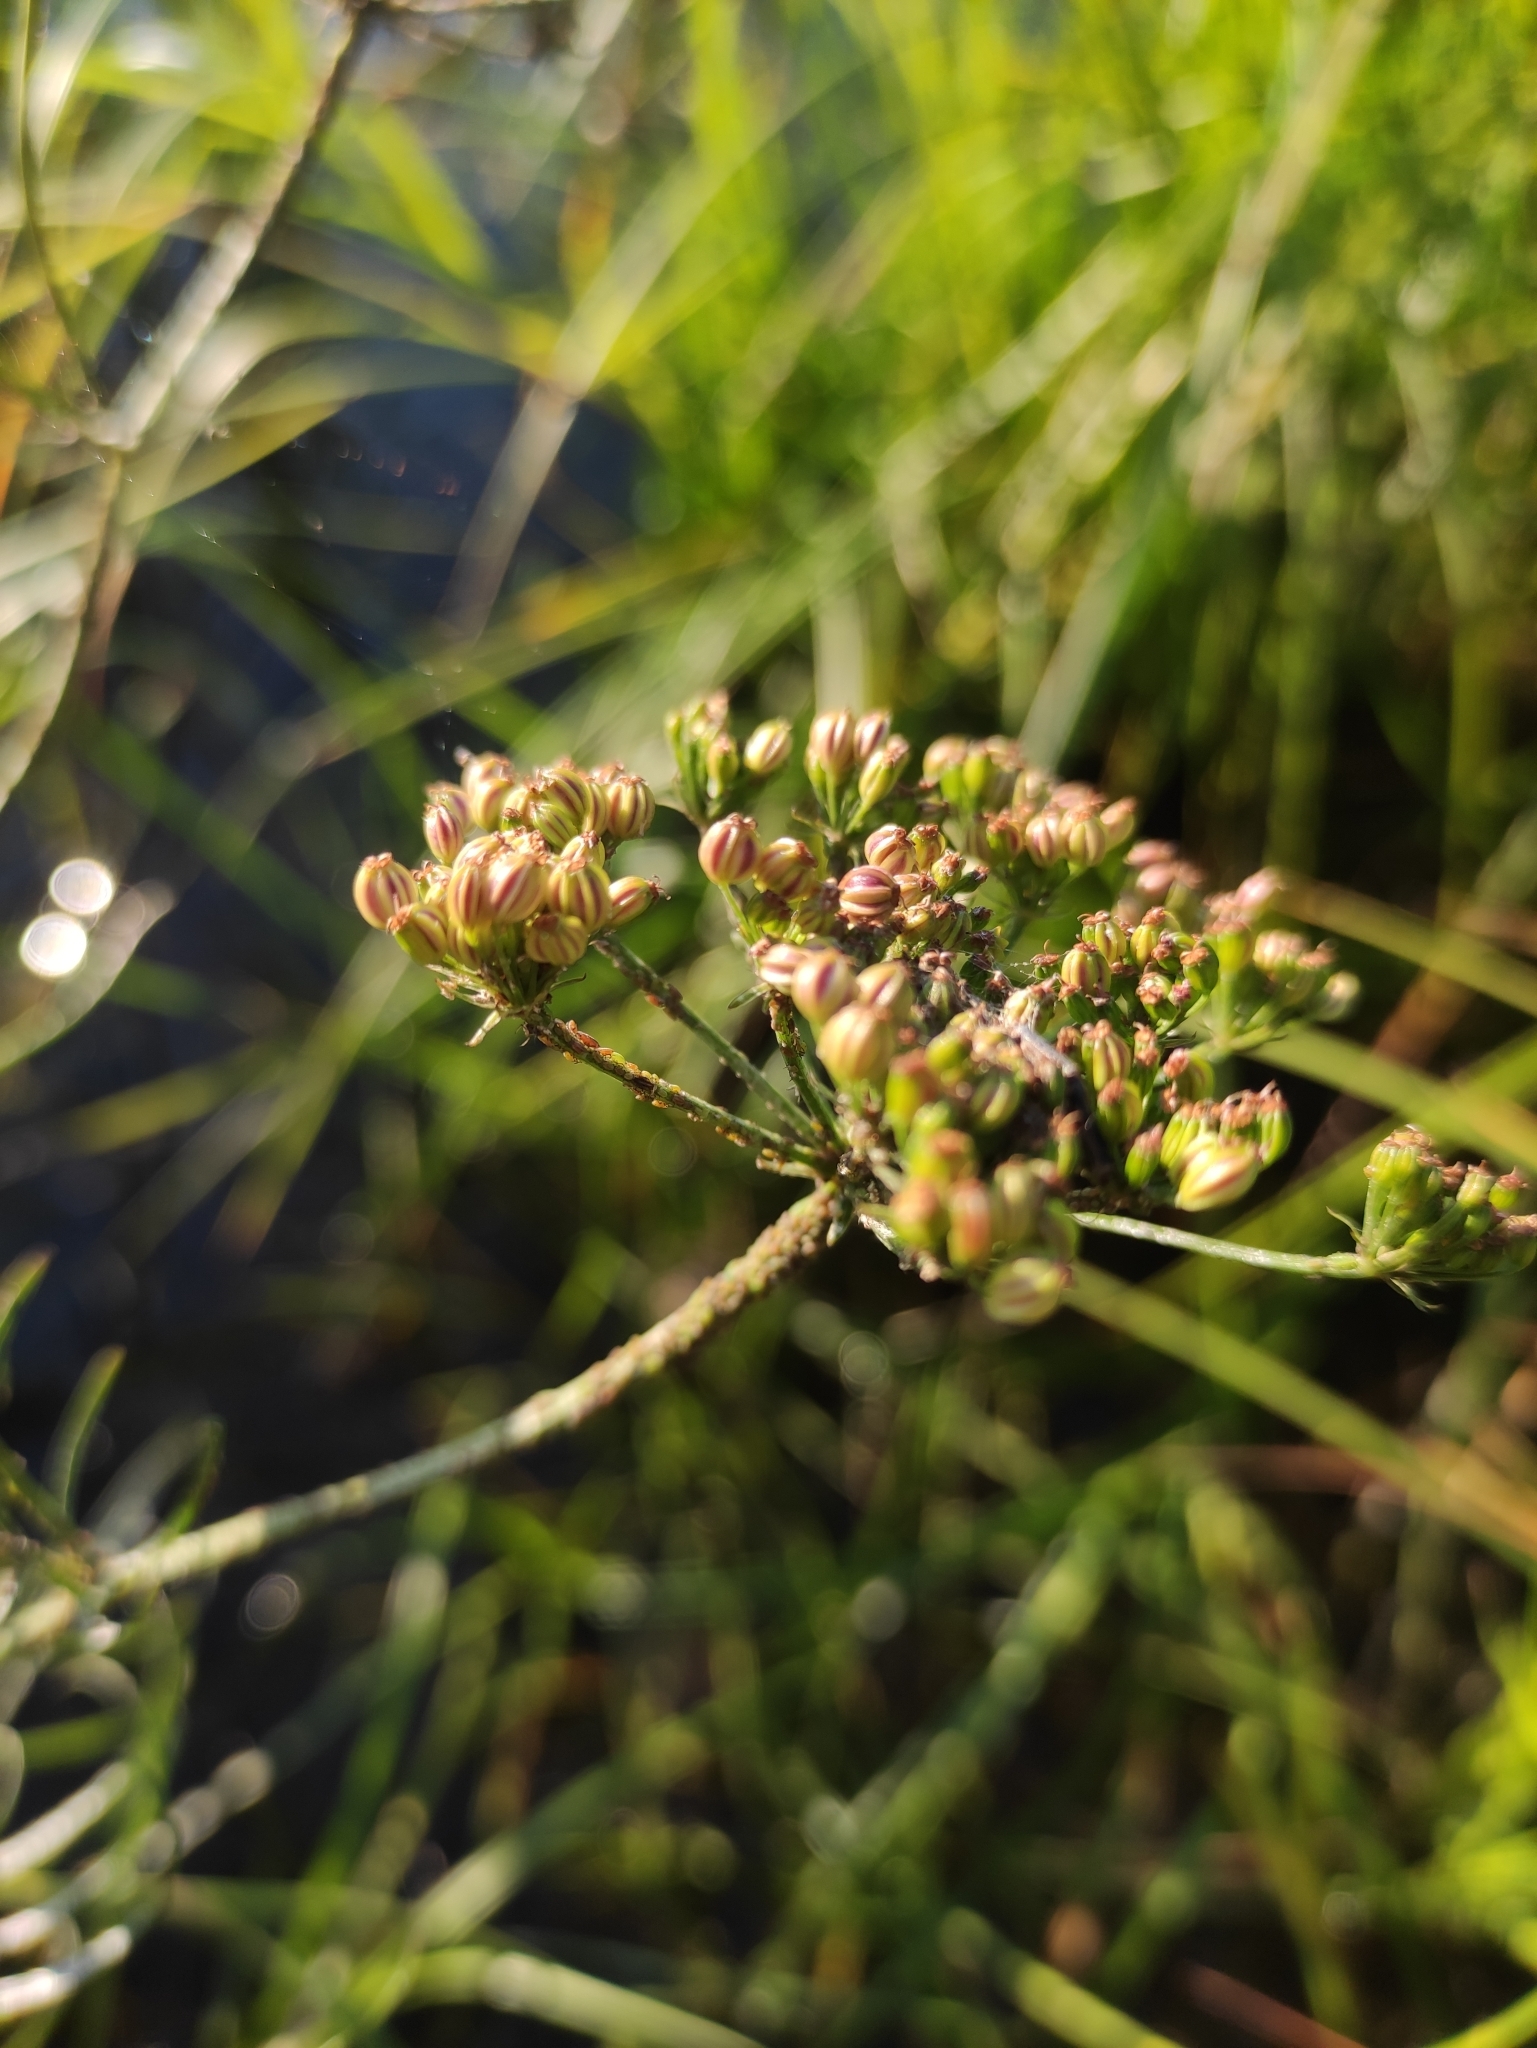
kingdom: Plantae
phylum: Tracheophyta
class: Magnoliopsida
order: Apiales
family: Apiaceae
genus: Sium
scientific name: Sium suave
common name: Hemlock water-parsnip
